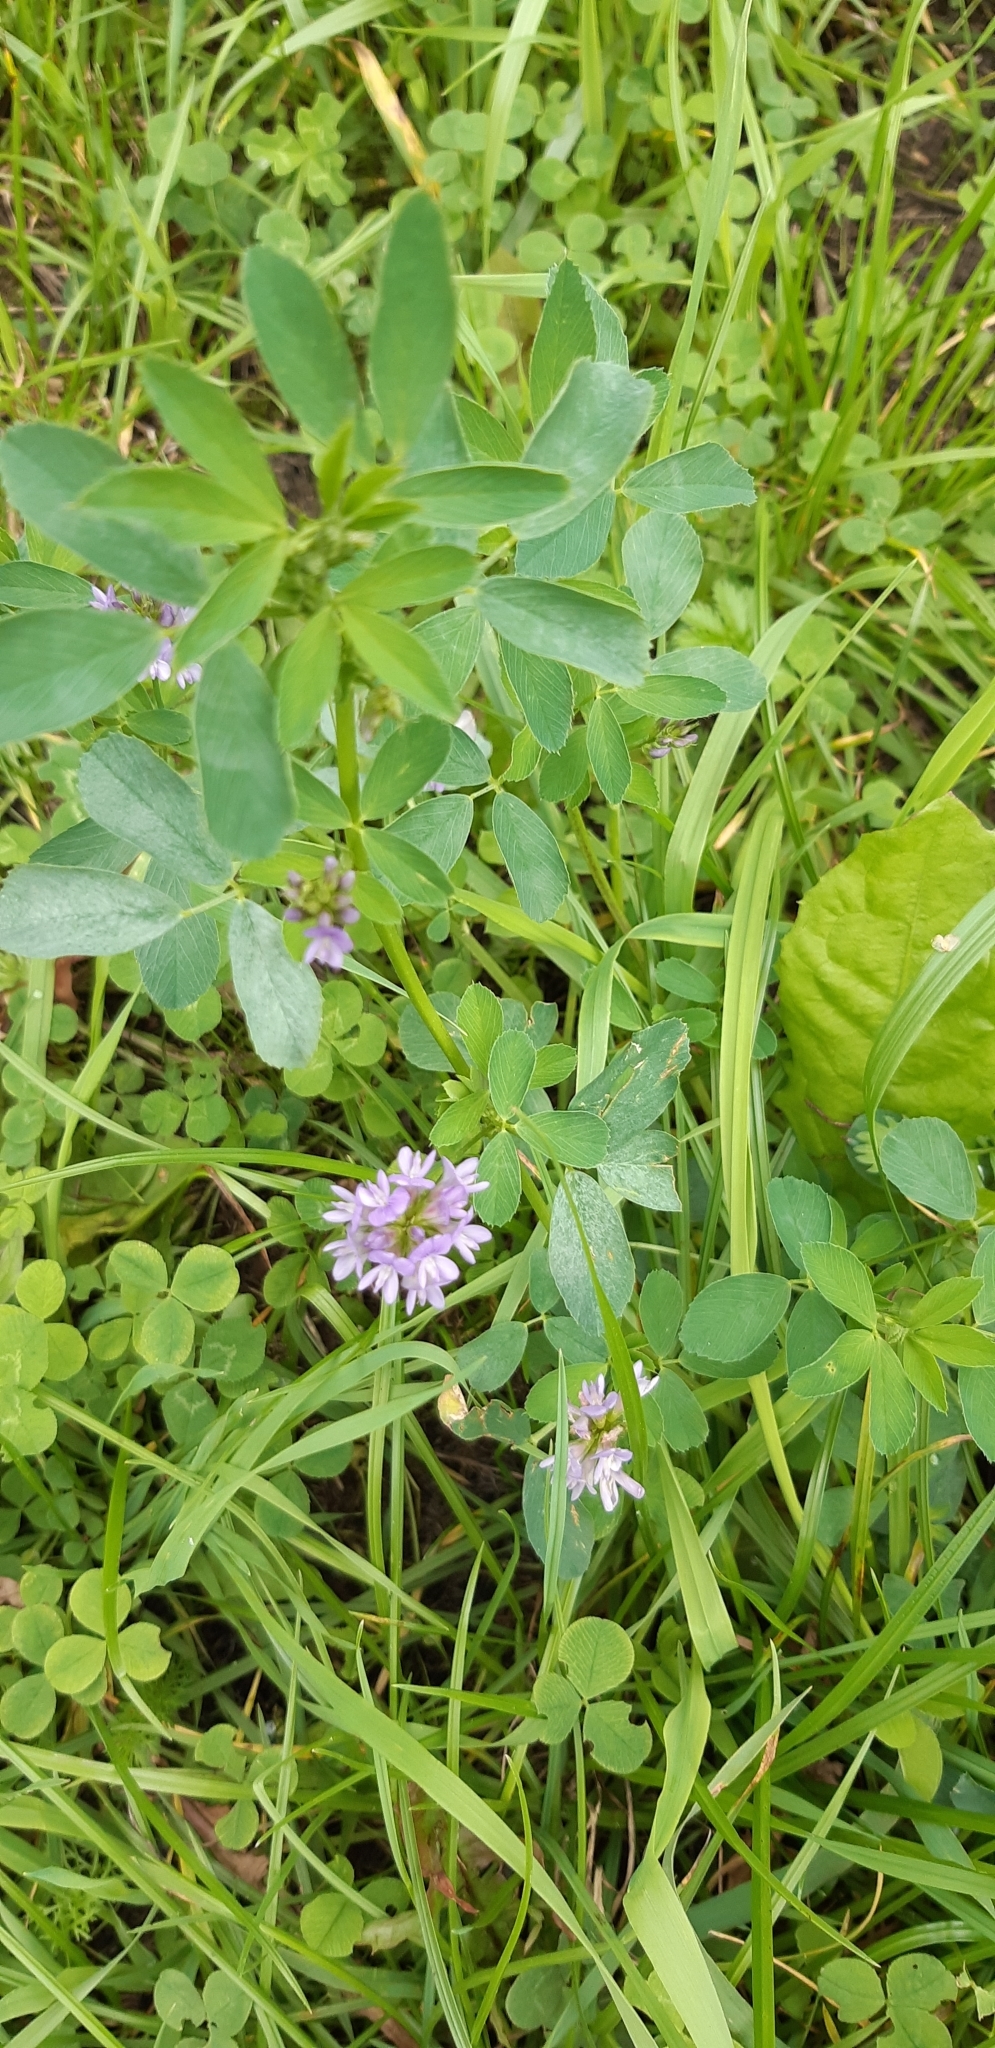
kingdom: Plantae
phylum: Tracheophyta
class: Magnoliopsida
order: Fabales
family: Fabaceae
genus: Medicago
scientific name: Medicago varia
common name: Sand lucerne
